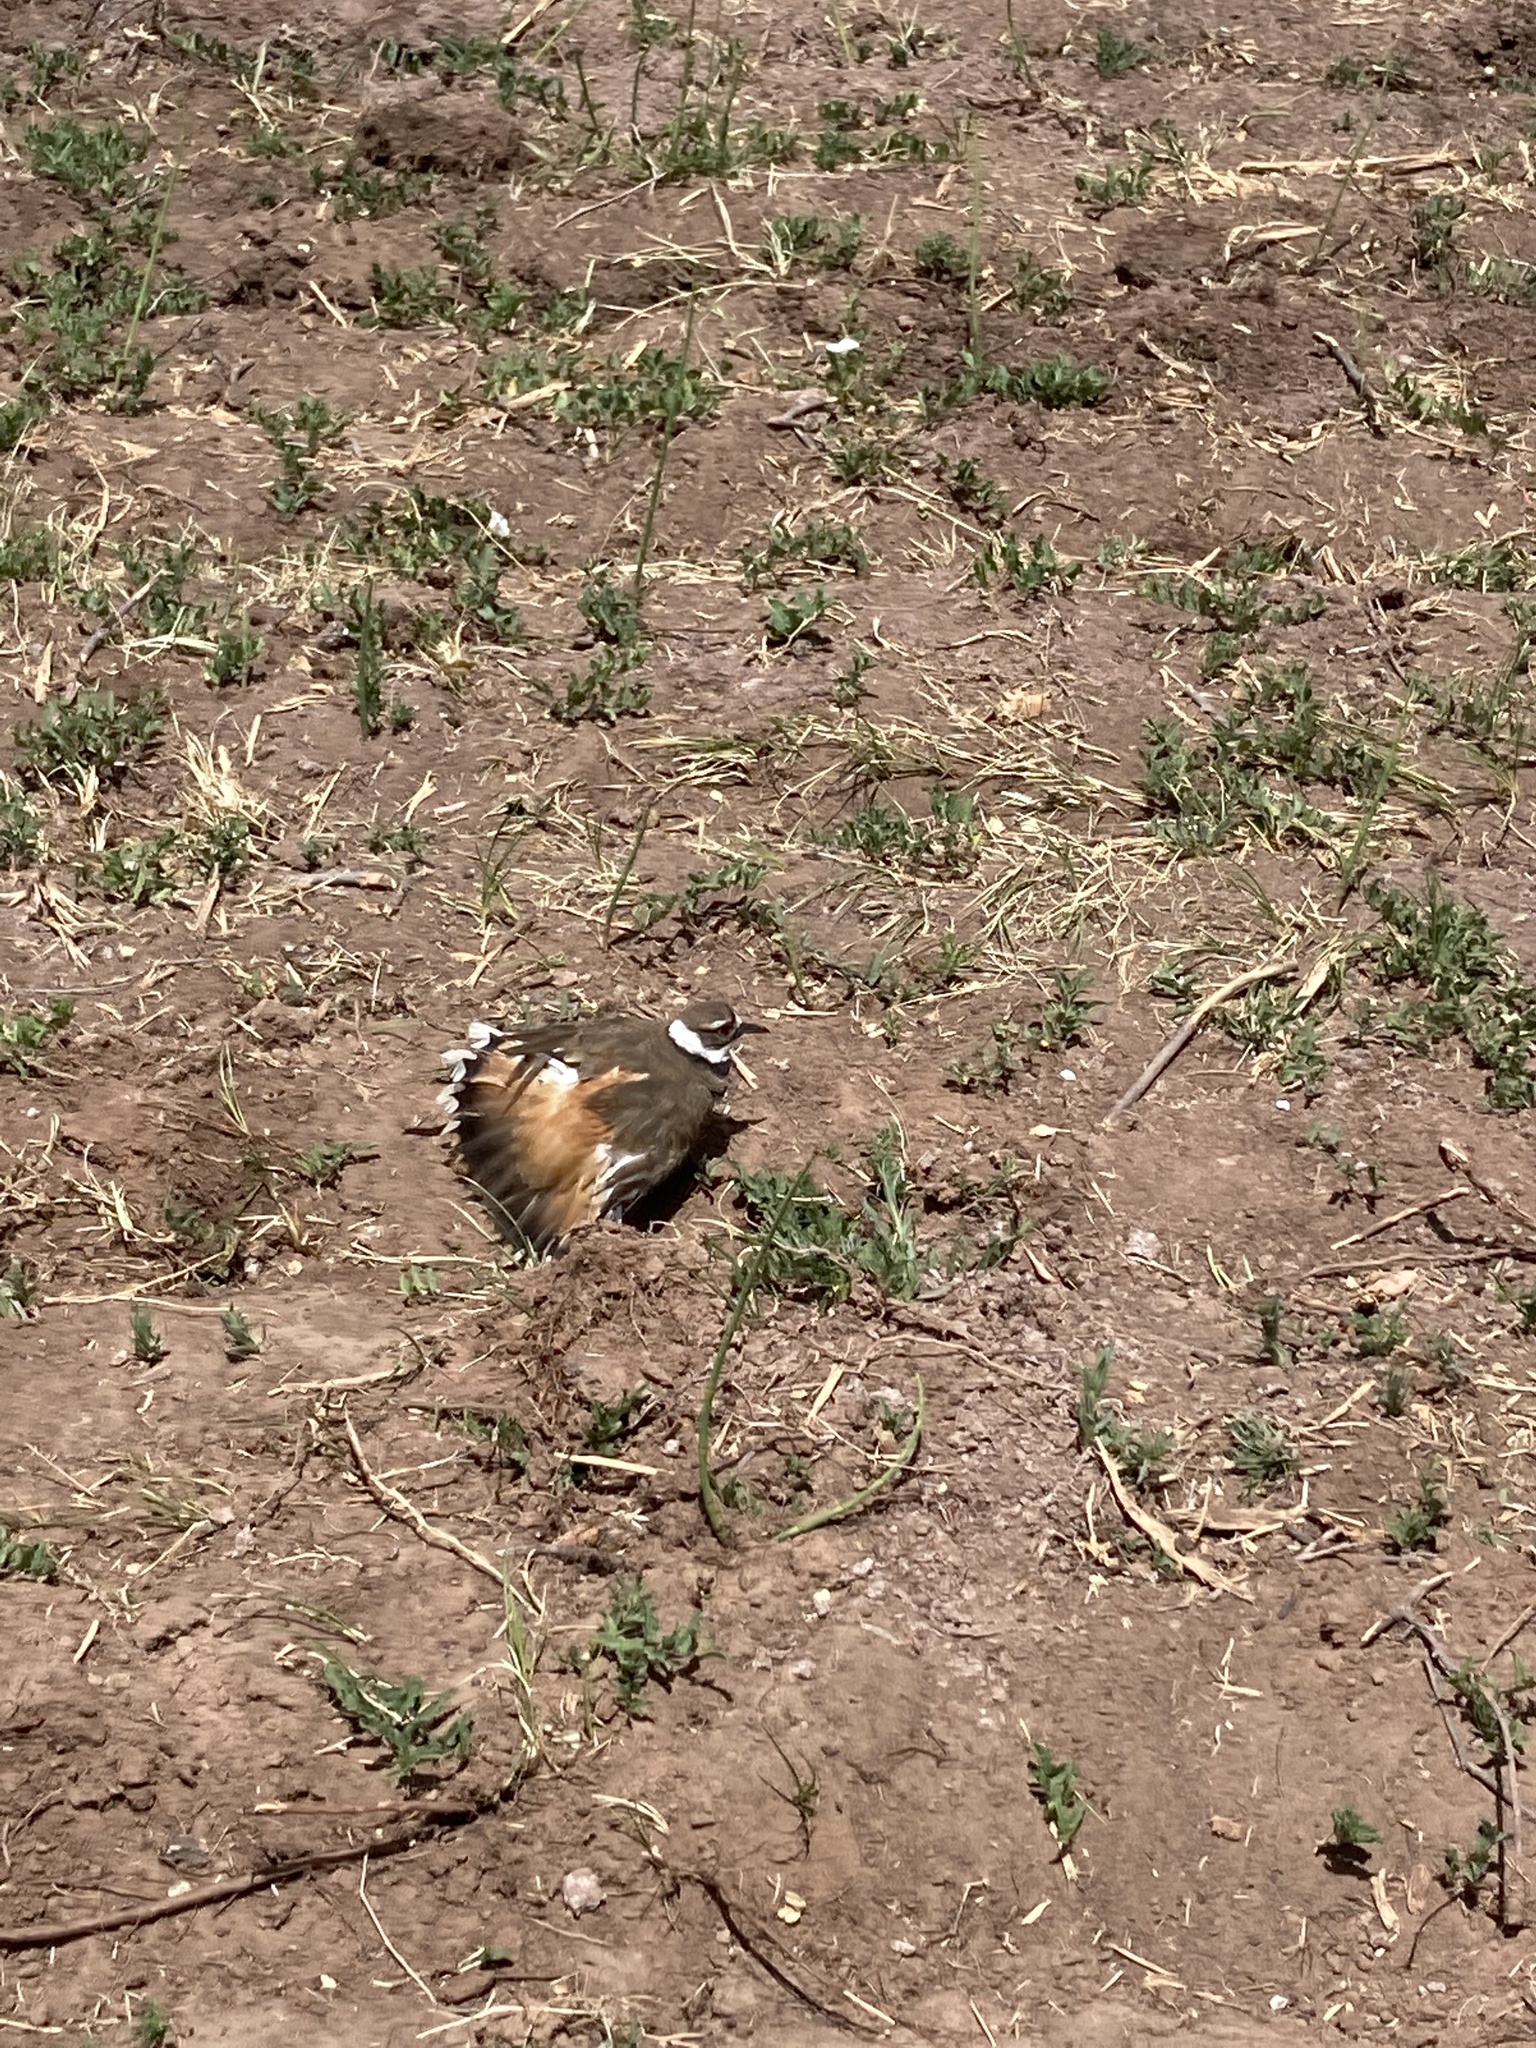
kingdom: Animalia
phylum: Chordata
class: Aves
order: Charadriiformes
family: Charadriidae
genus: Charadrius
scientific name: Charadrius vociferus
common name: Killdeer
